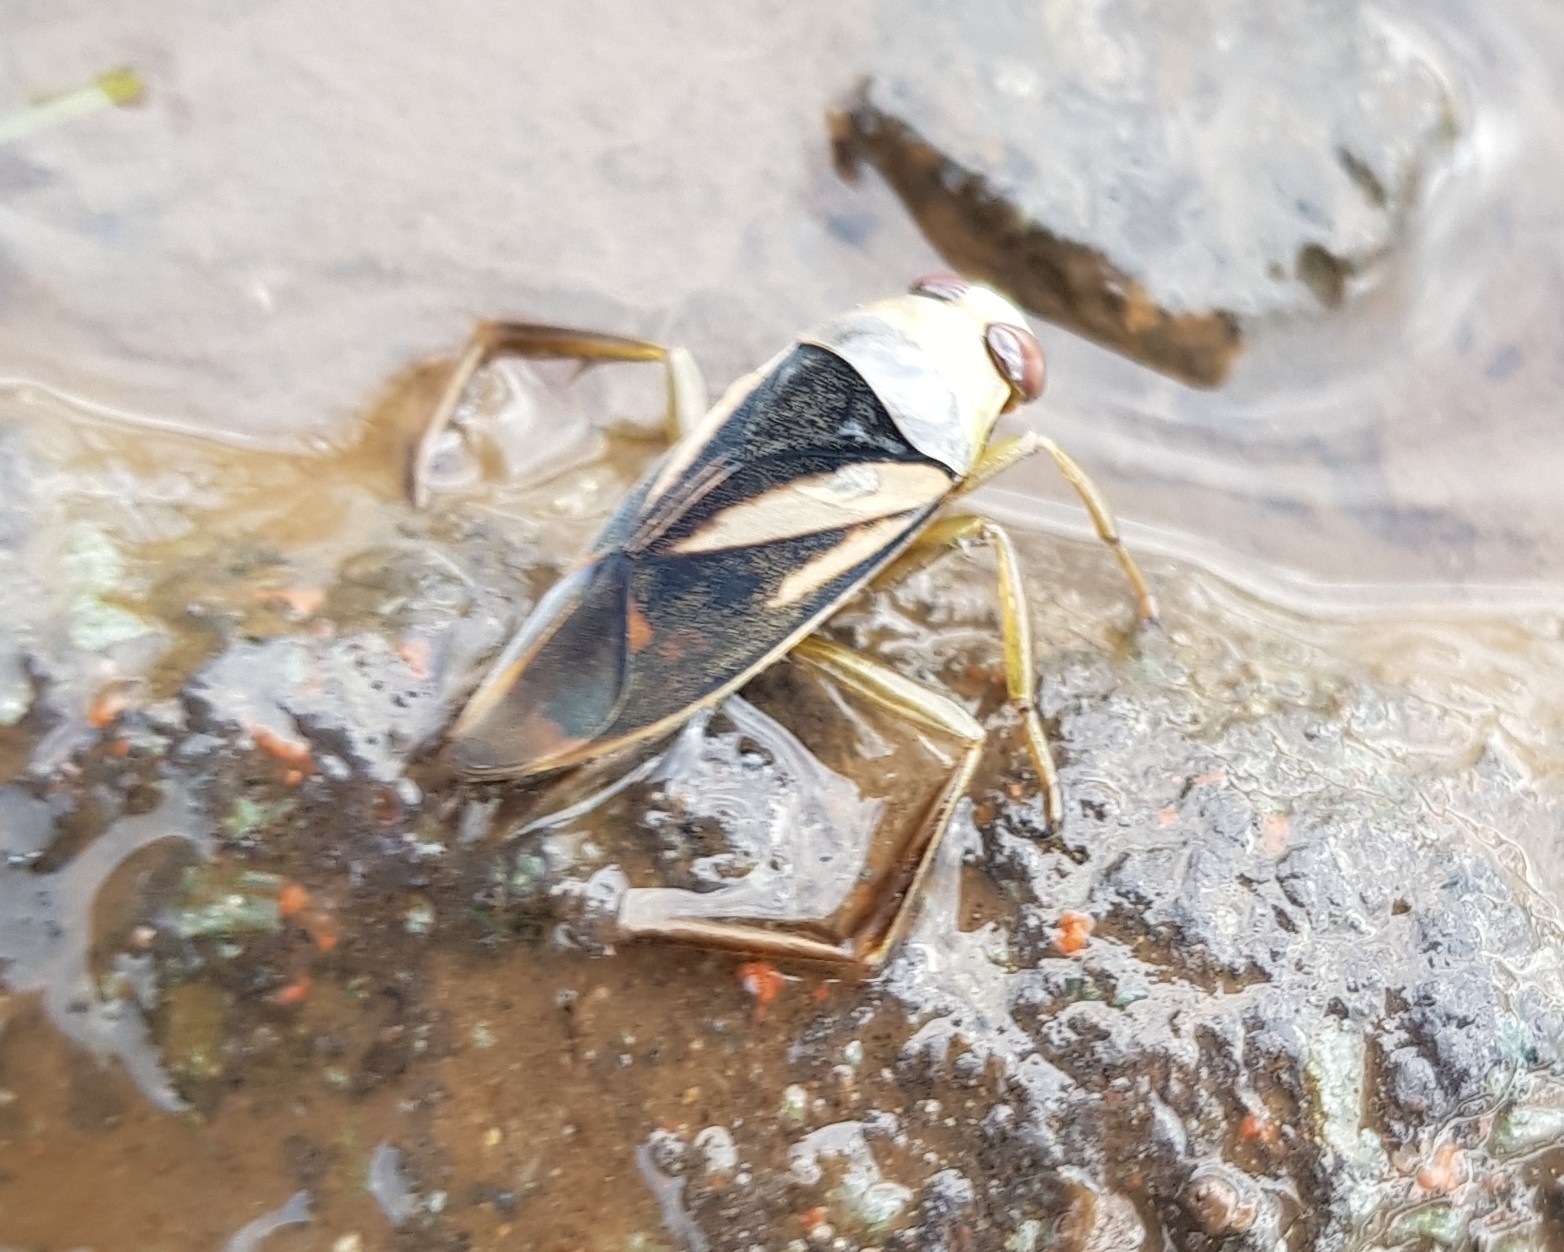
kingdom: Animalia
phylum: Arthropoda
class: Insecta
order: Hemiptera
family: Notonectidae
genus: Notonecta
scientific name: Notonecta obliqua
